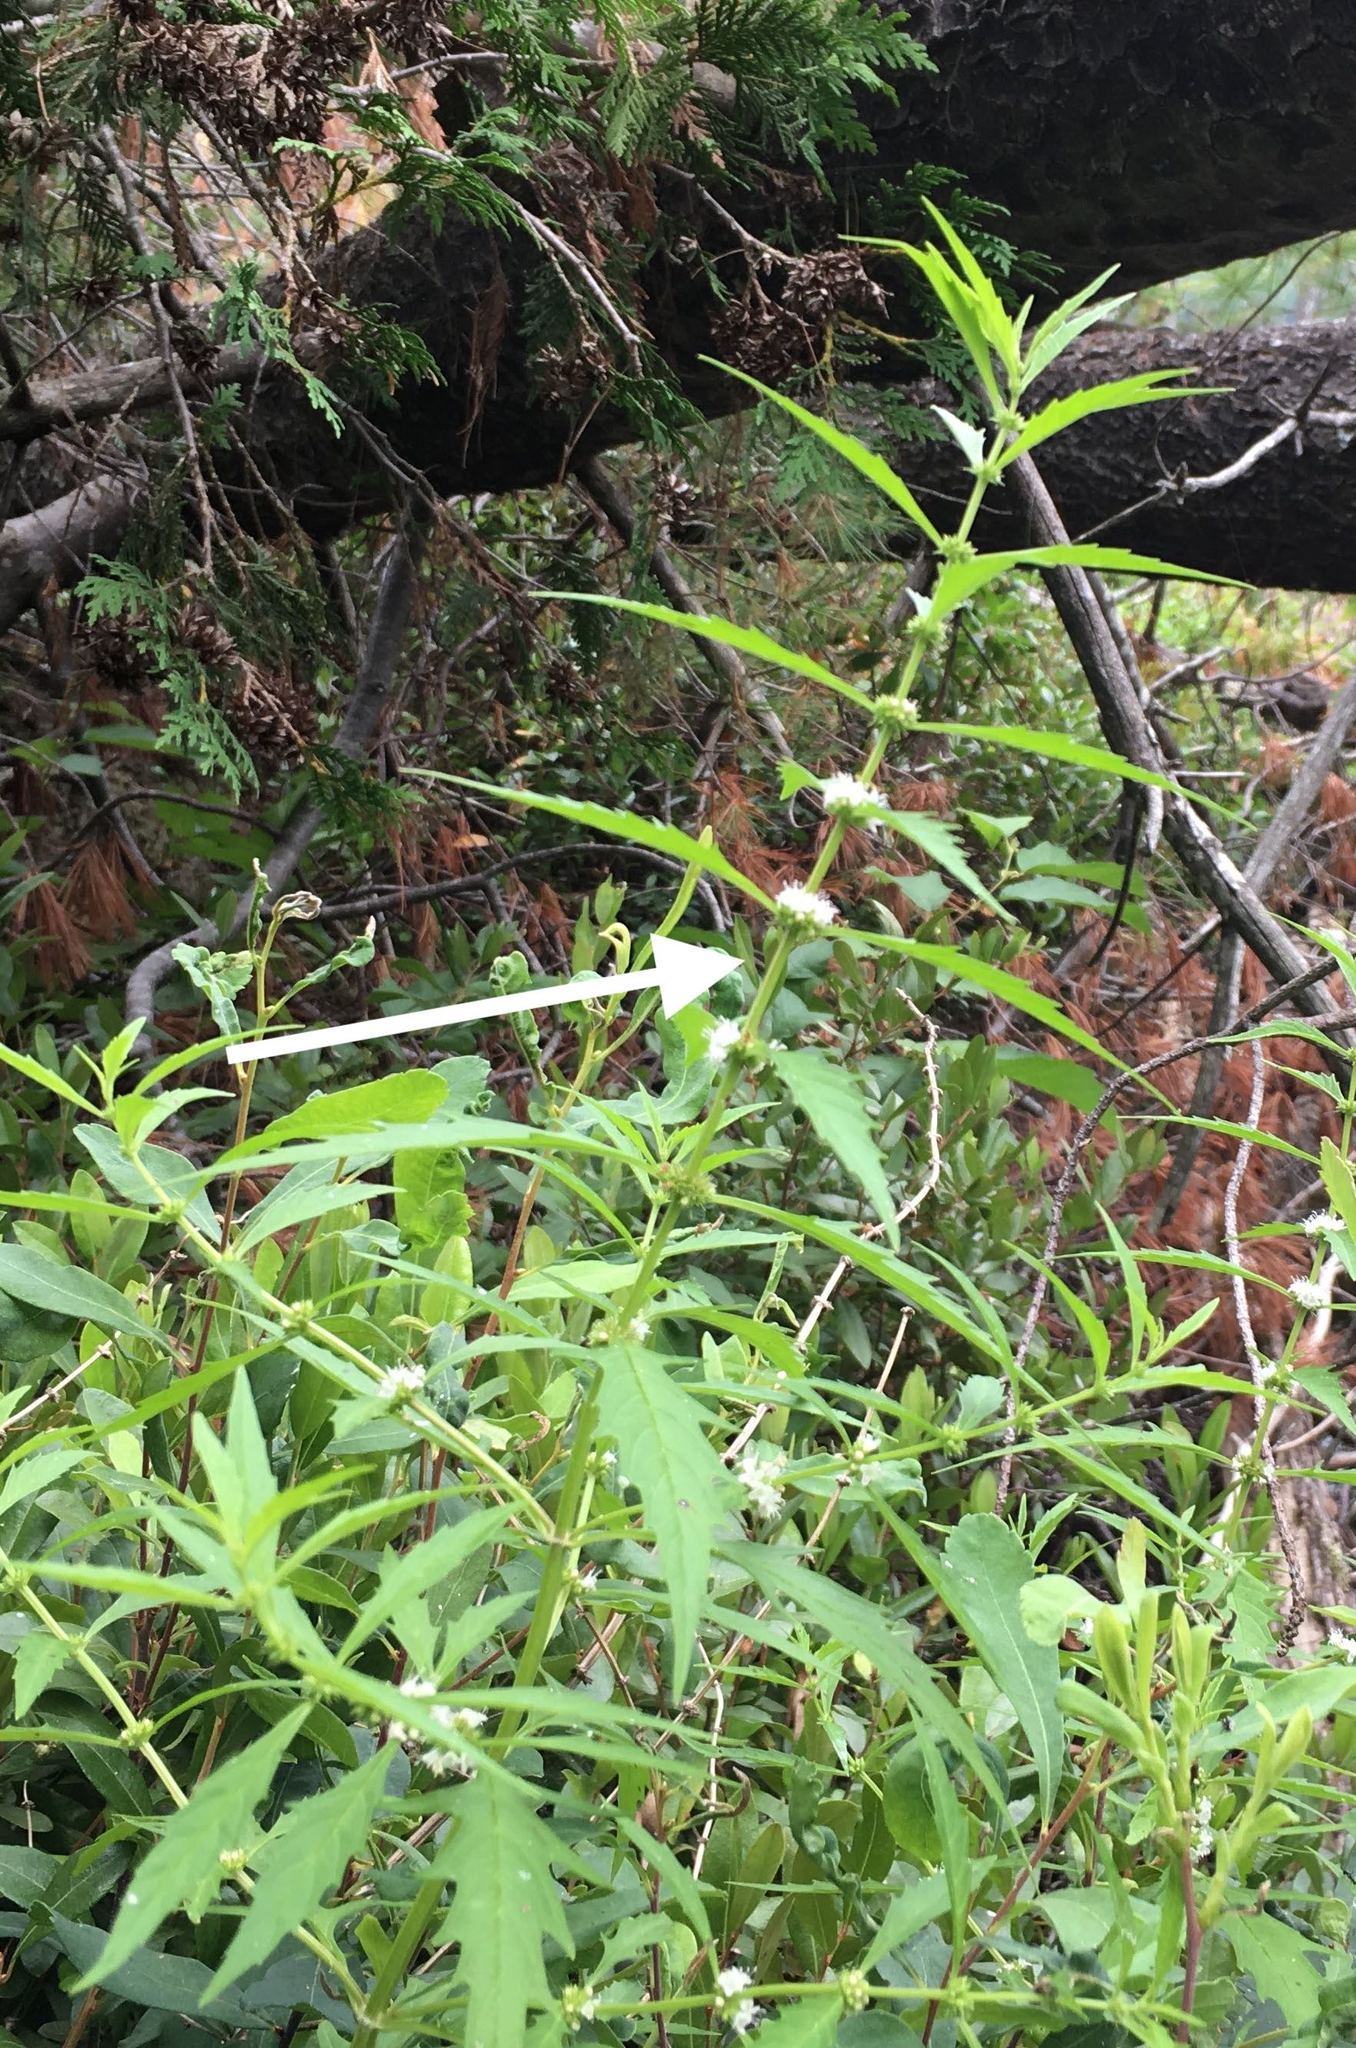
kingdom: Plantae
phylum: Tracheophyta
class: Magnoliopsida
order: Lamiales
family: Lamiaceae
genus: Lycopus
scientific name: Lycopus americanus
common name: American bugleweed
